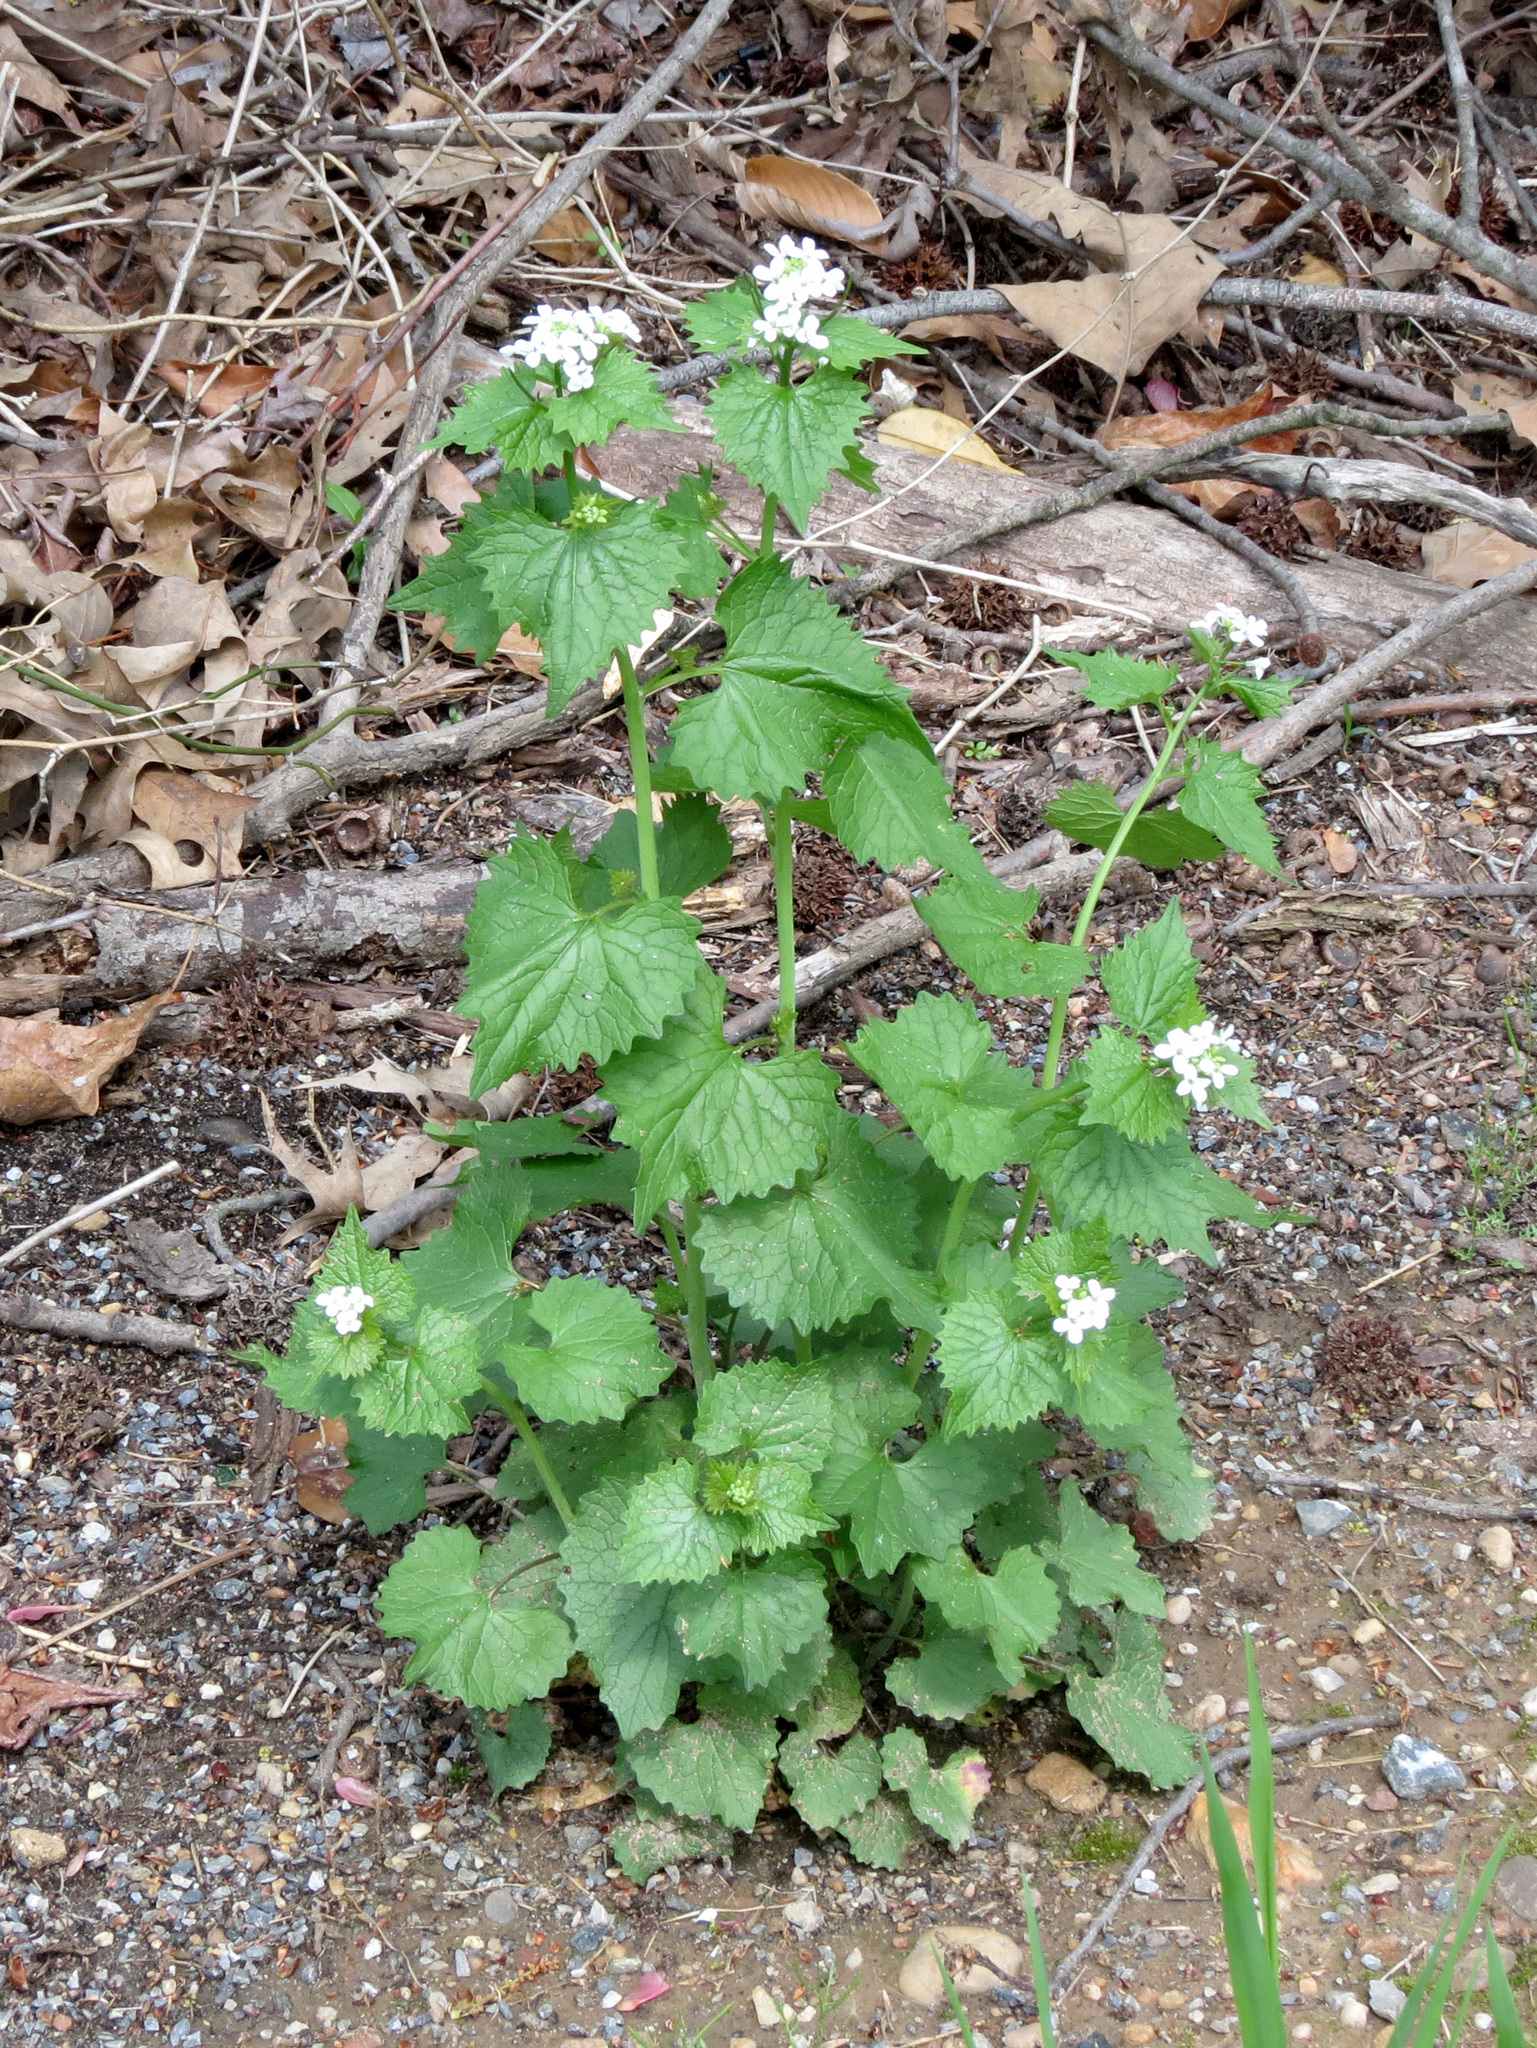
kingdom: Plantae
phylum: Tracheophyta
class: Magnoliopsida
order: Brassicales
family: Brassicaceae
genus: Alliaria
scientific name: Alliaria petiolata
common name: Garlic mustard
